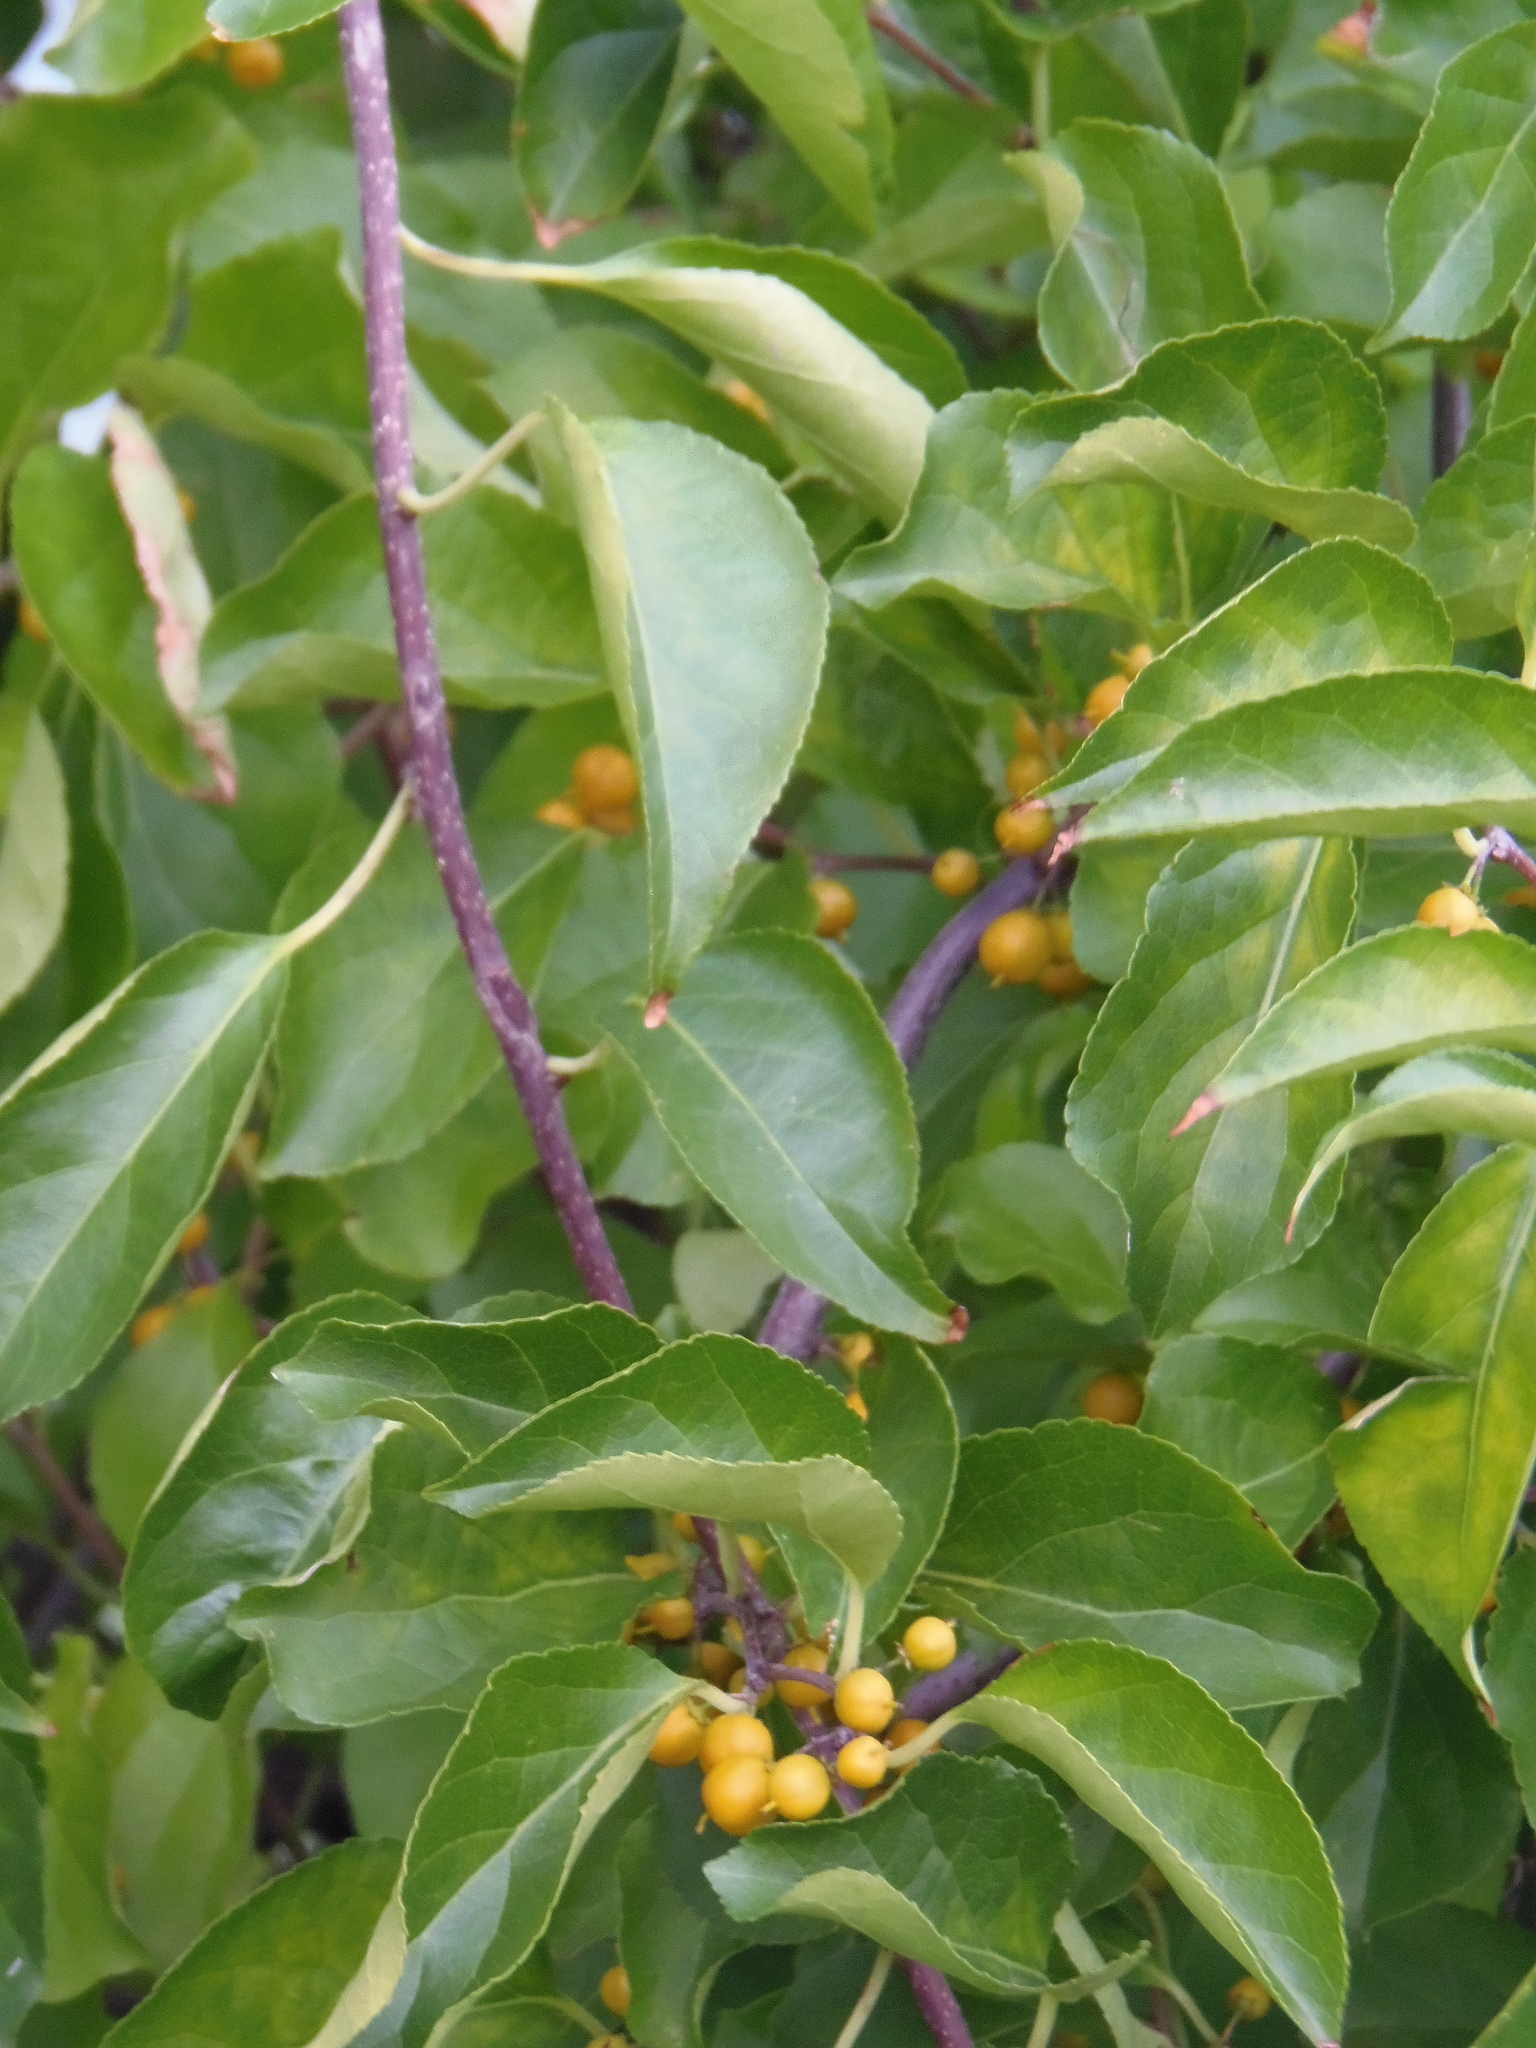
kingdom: Plantae
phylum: Tracheophyta
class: Magnoliopsida
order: Celastrales
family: Celastraceae
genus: Celastrus
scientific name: Celastrus orbiculatus
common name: Oriental bittersweet
